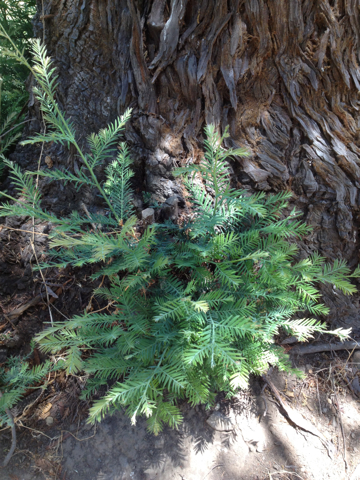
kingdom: Plantae
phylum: Tracheophyta
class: Pinopsida
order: Pinales
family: Cupressaceae
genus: Sequoia
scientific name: Sequoia sempervirens
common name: Coast redwood
